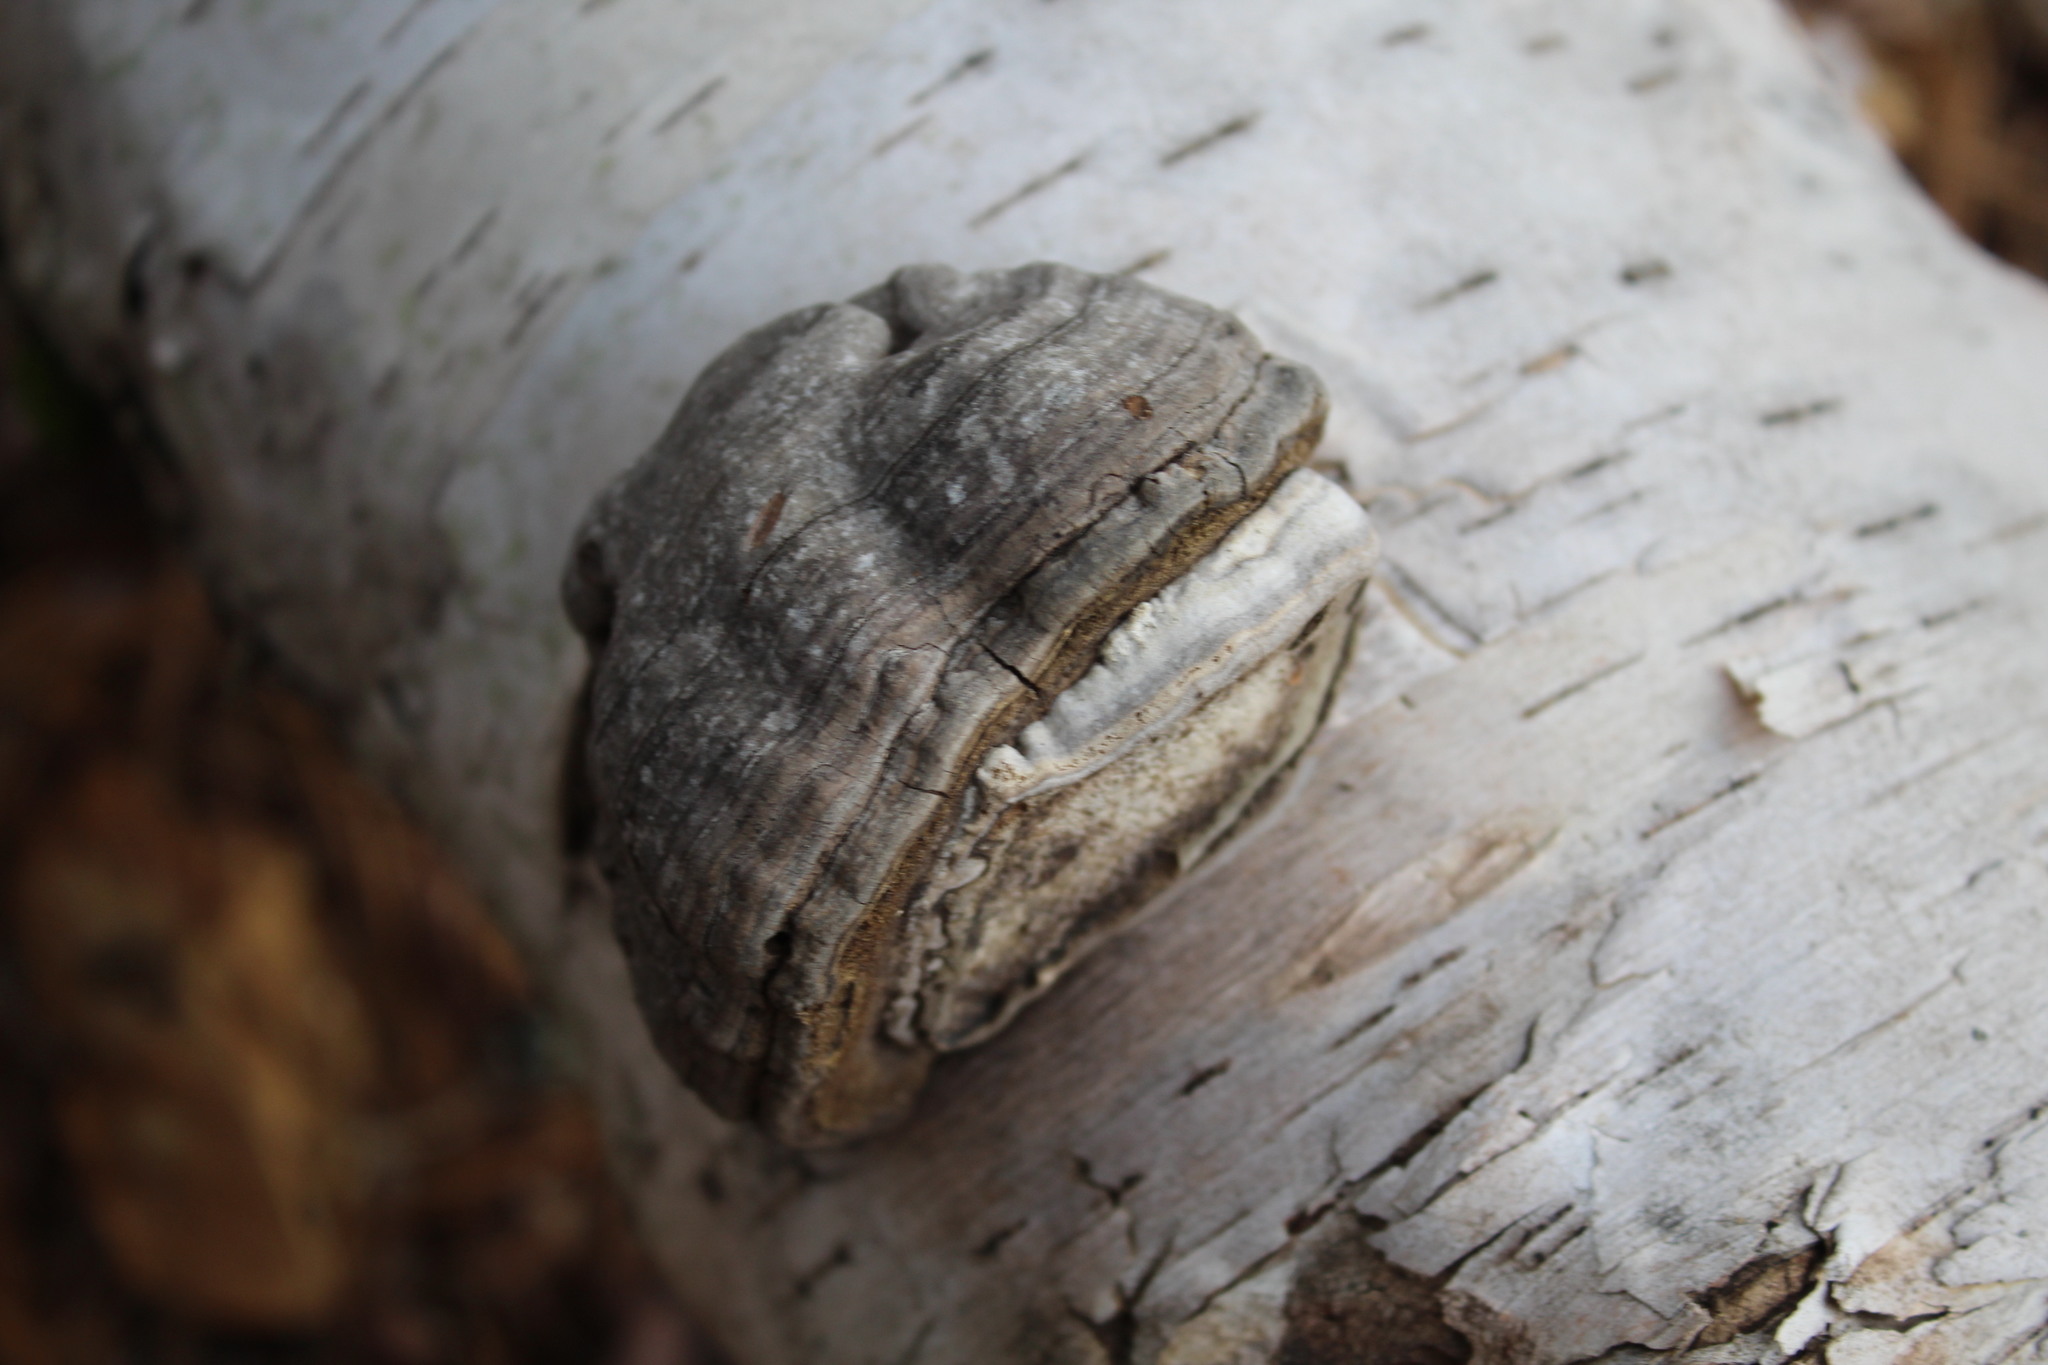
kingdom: Fungi
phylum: Basidiomycota
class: Agaricomycetes
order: Polyporales
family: Polyporaceae
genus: Fomes
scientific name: Fomes fomentarius
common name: Hoof fungus
